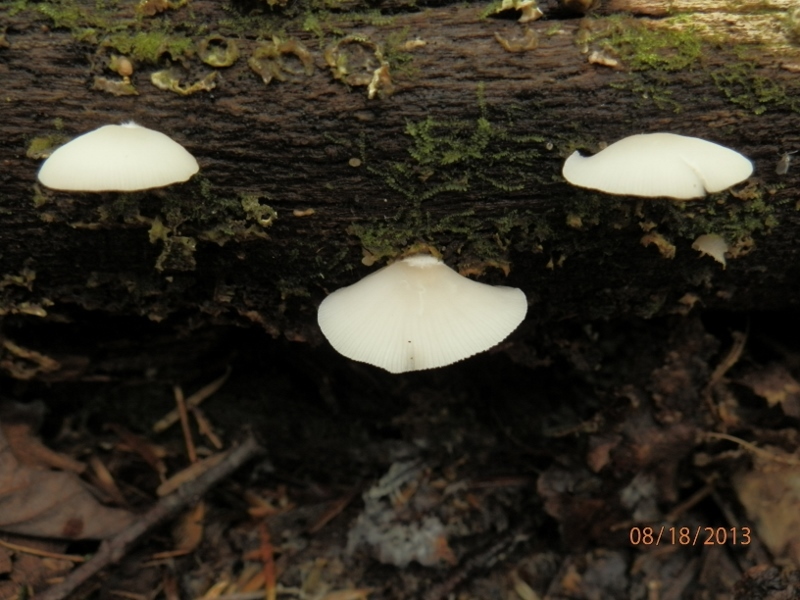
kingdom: Fungi
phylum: Basidiomycota
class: Agaricomycetes
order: Agaricales
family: Crepidotaceae
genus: Crepidotus
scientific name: Crepidotus epibryus
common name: Grass oysterling
